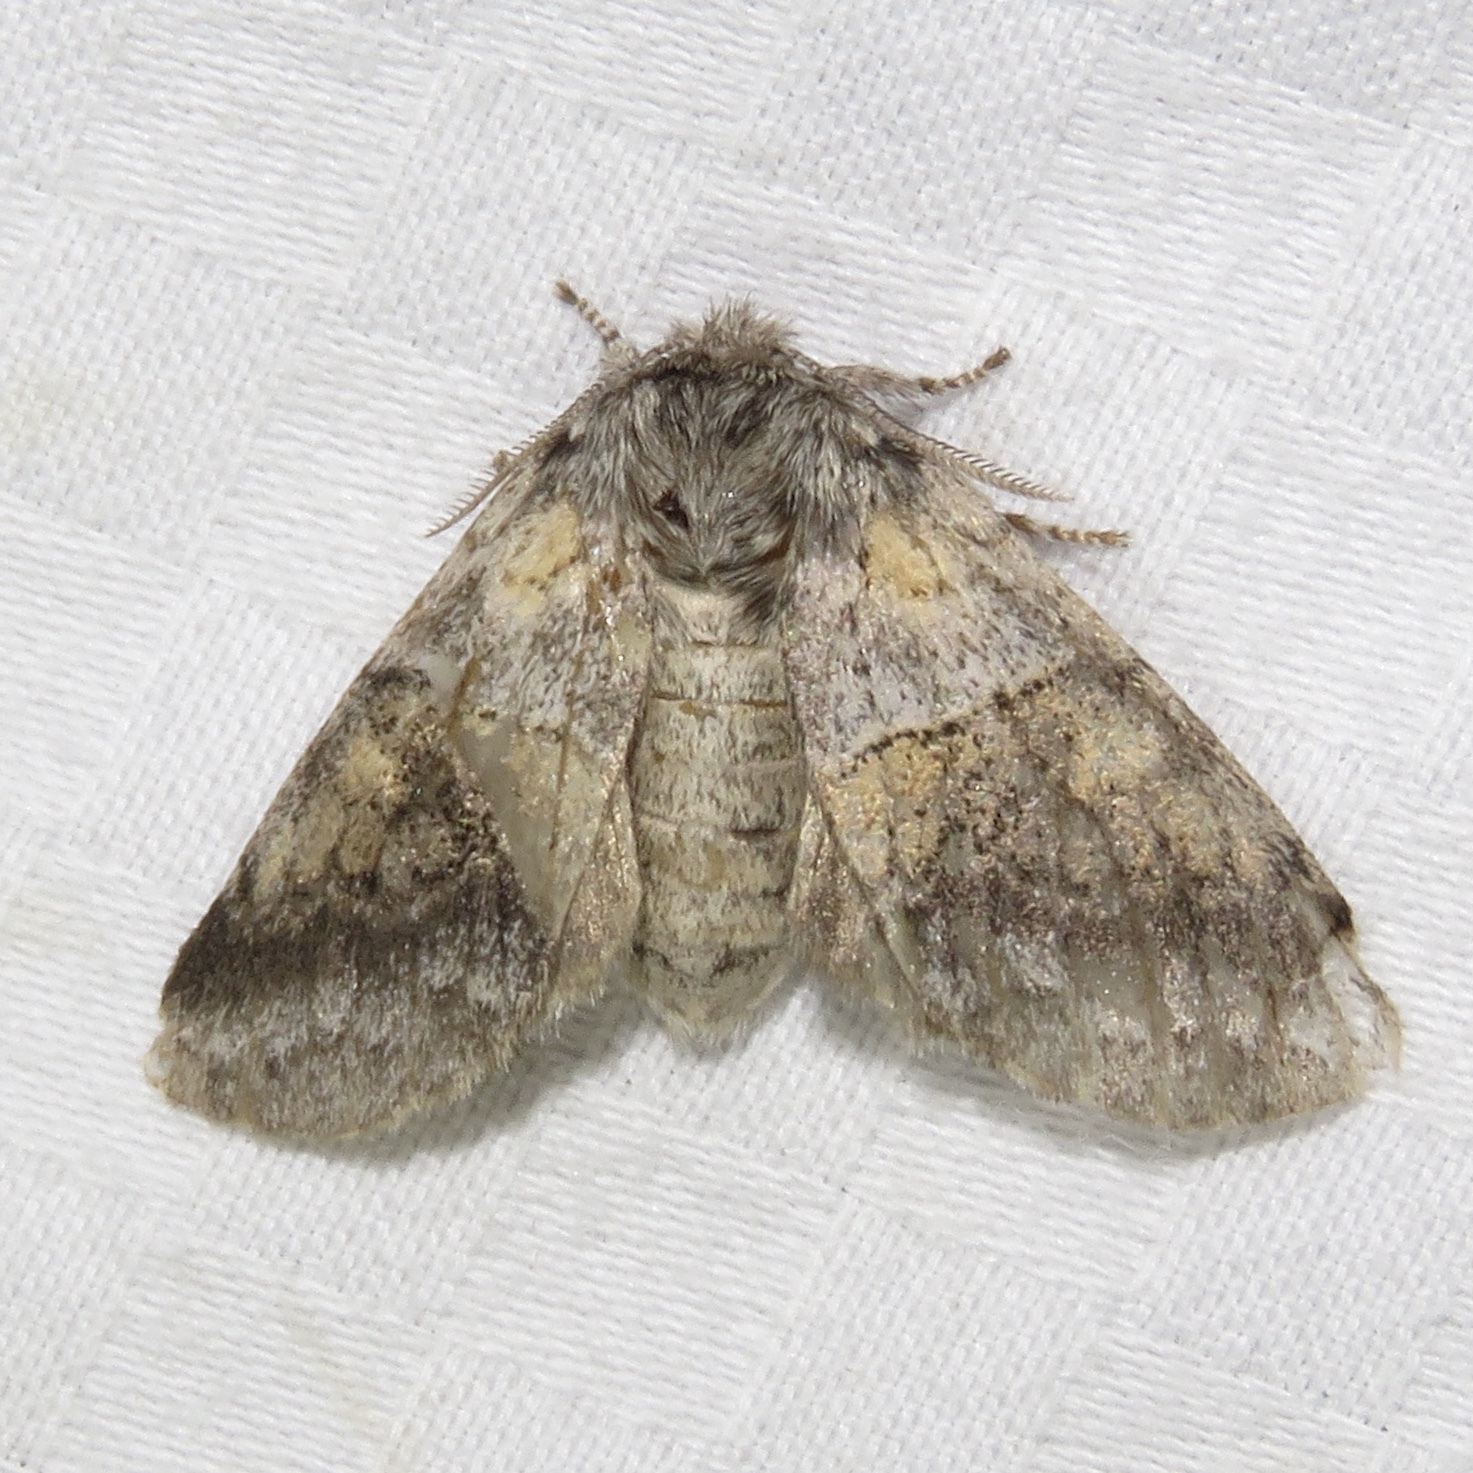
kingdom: Animalia
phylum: Arthropoda
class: Insecta
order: Lepidoptera
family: Notodontidae
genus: Gluphisia
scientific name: Gluphisia septentrionis
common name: Common gluphisia
